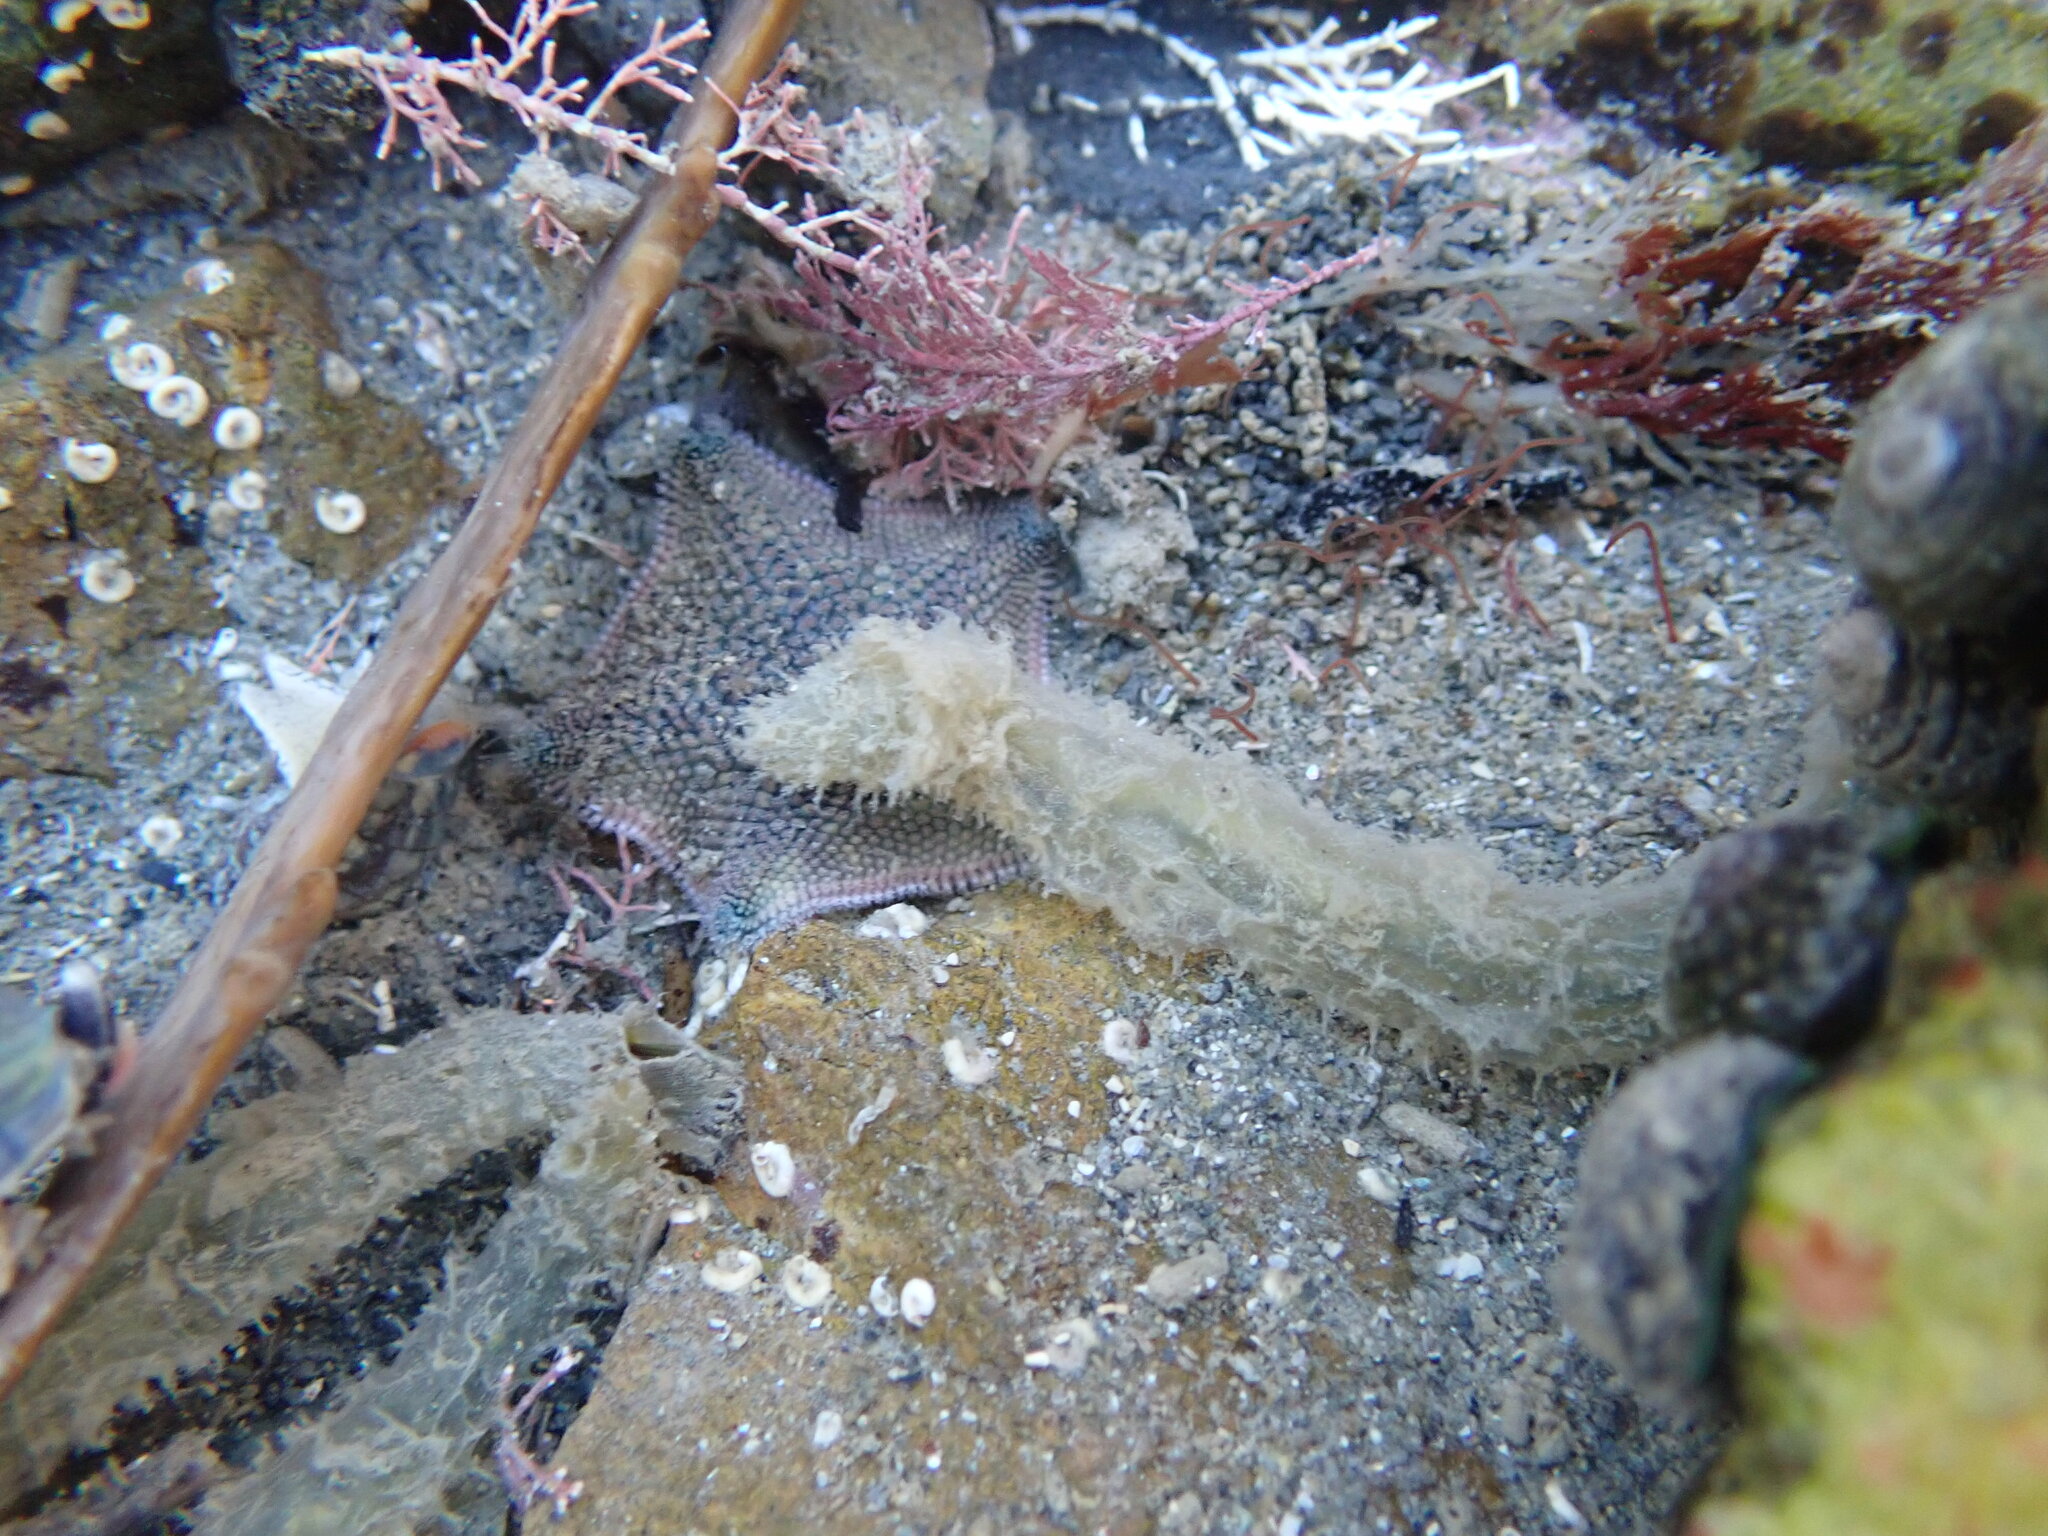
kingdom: Animalia
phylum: Annelida
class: Polychaeta
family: Flabelligeridae
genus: Flabelligera
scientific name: Flabelligera bicolor
